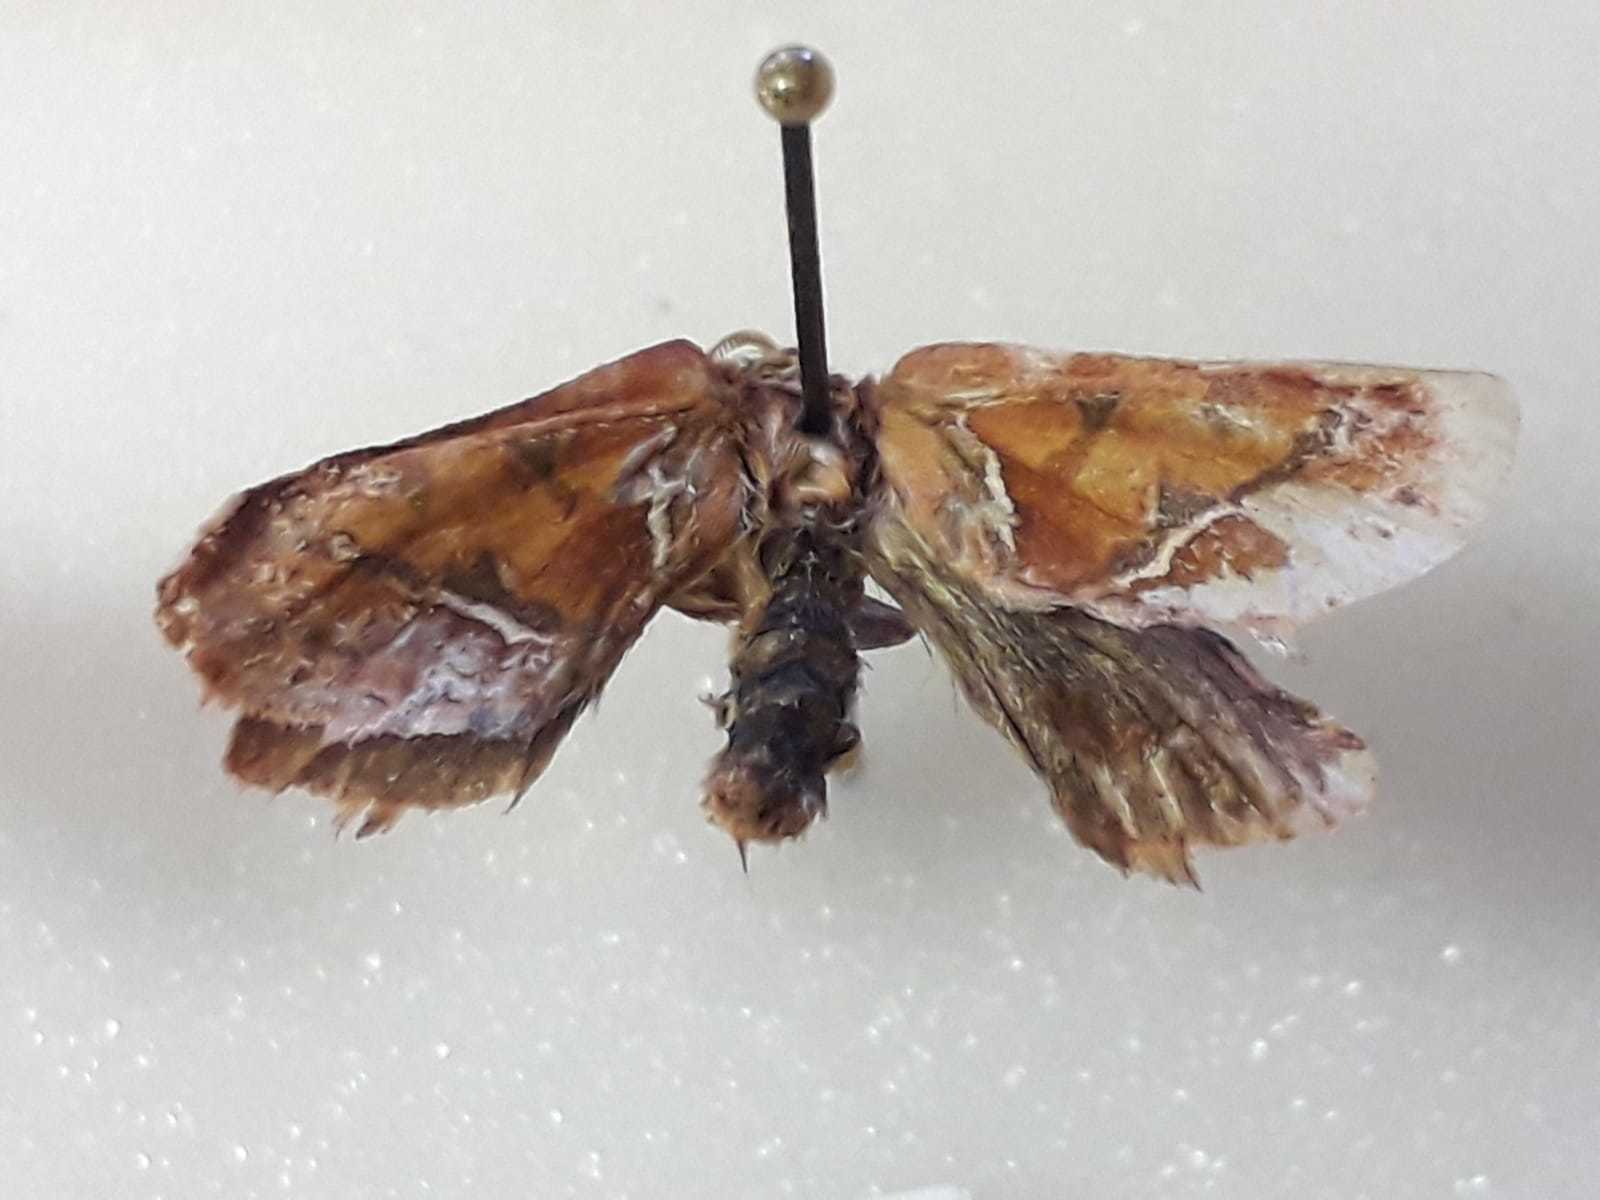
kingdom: Animalia
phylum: Arthropoda
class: Insecta
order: Lepidoptera
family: Hepialidae
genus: Triodia
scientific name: Triodia sylvina
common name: Orange swift
